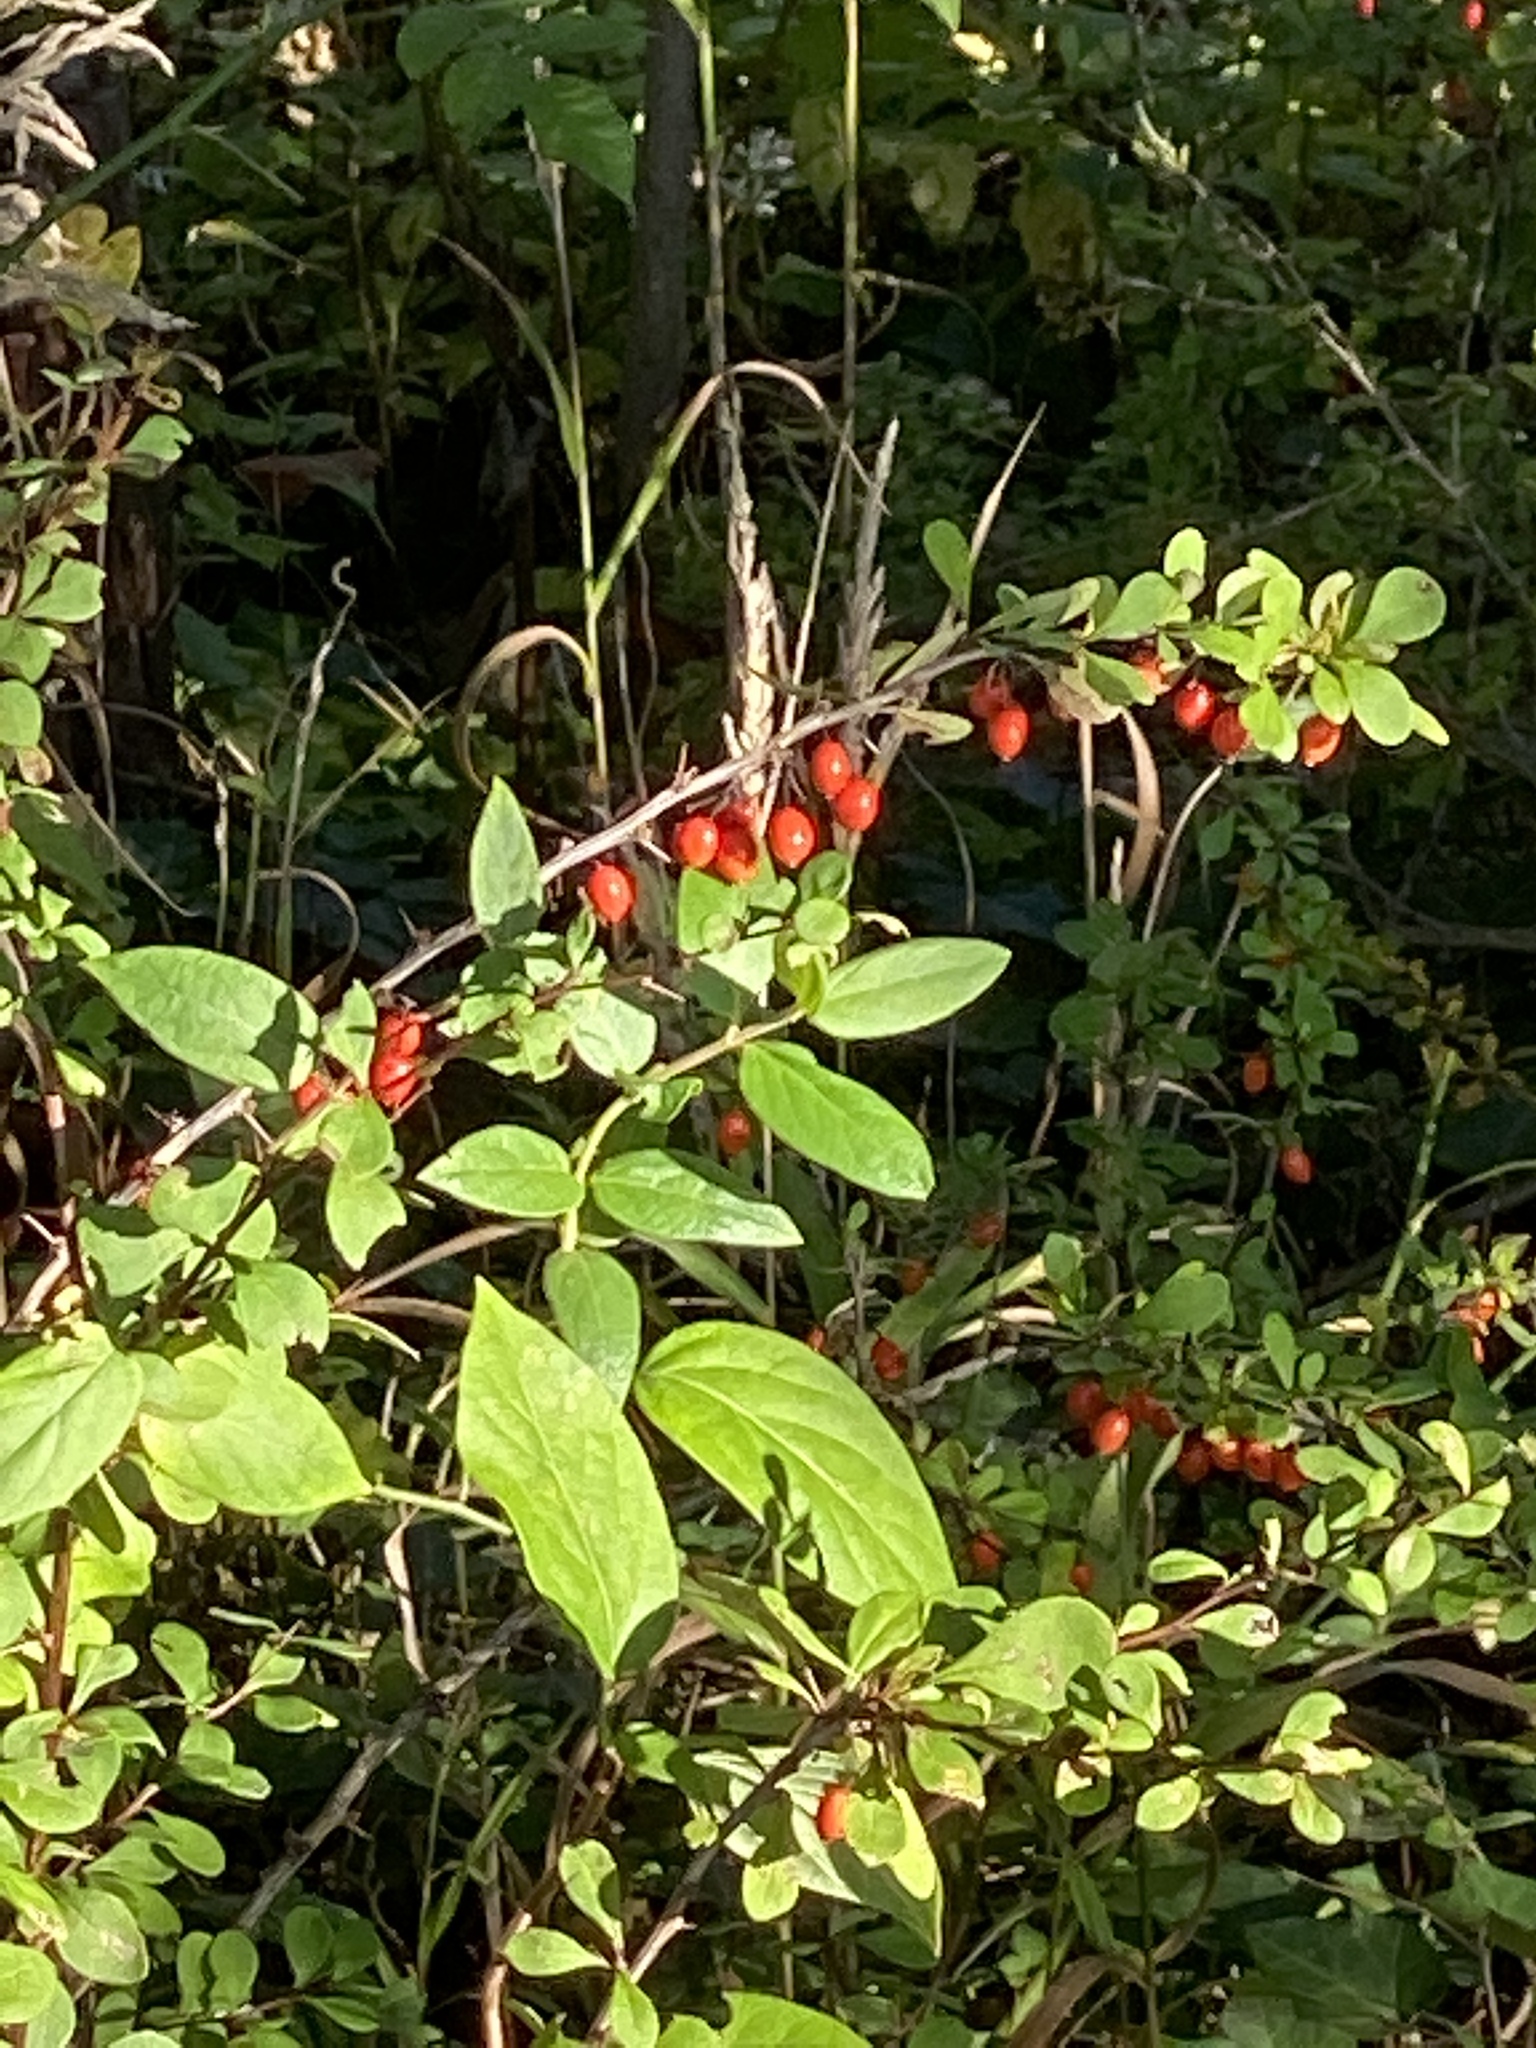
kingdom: Plantae
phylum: Tracheophyta
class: Magnoliopsida
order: Ranunculales
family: Berberidaceae
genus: Berberis
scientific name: Berberis thunbergii
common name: Japanese barberry
